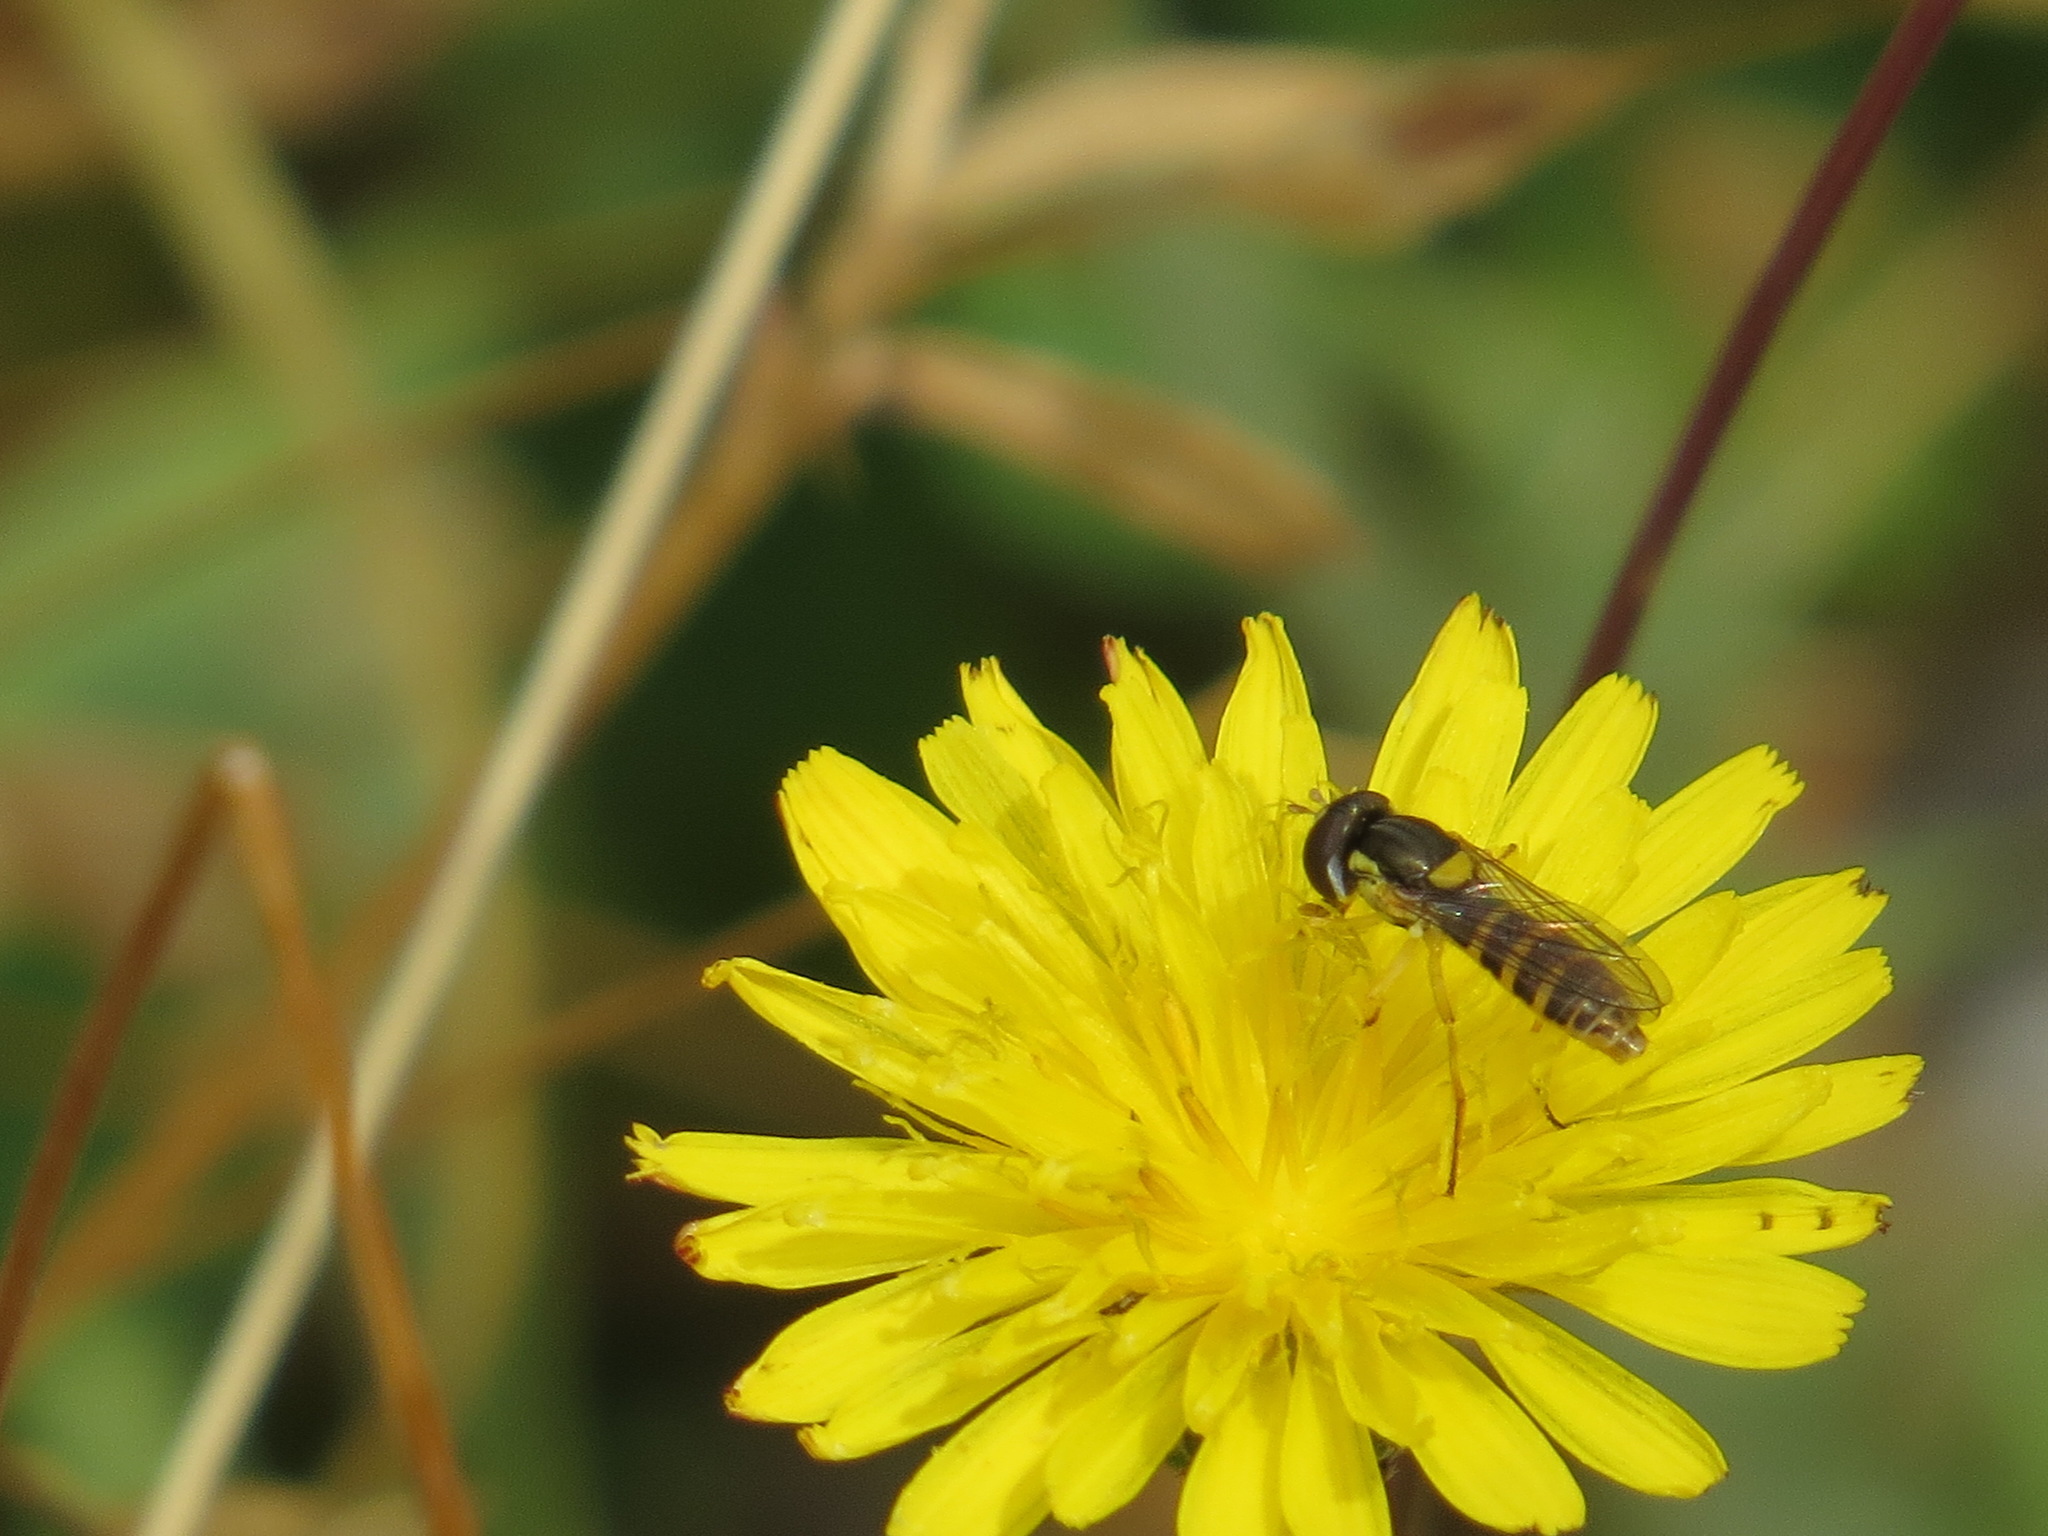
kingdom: Animalia
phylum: Arthropoda
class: Insecta
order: Diptera
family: Syrphidae
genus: Sphaerophoria
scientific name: Sphaerophoria sulphuripes
